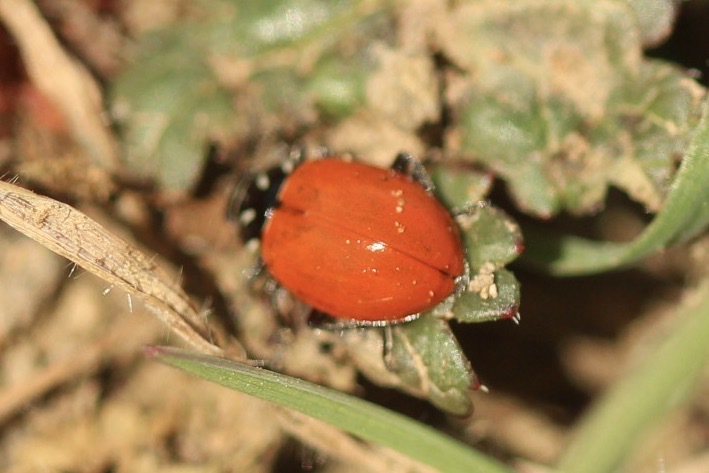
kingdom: Animalia
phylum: Arthropoda
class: Insecta
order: Coleoptera
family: Coccinellidae
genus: Hippodamia
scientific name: Hippodamia convergens
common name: Convergent lady beetle
